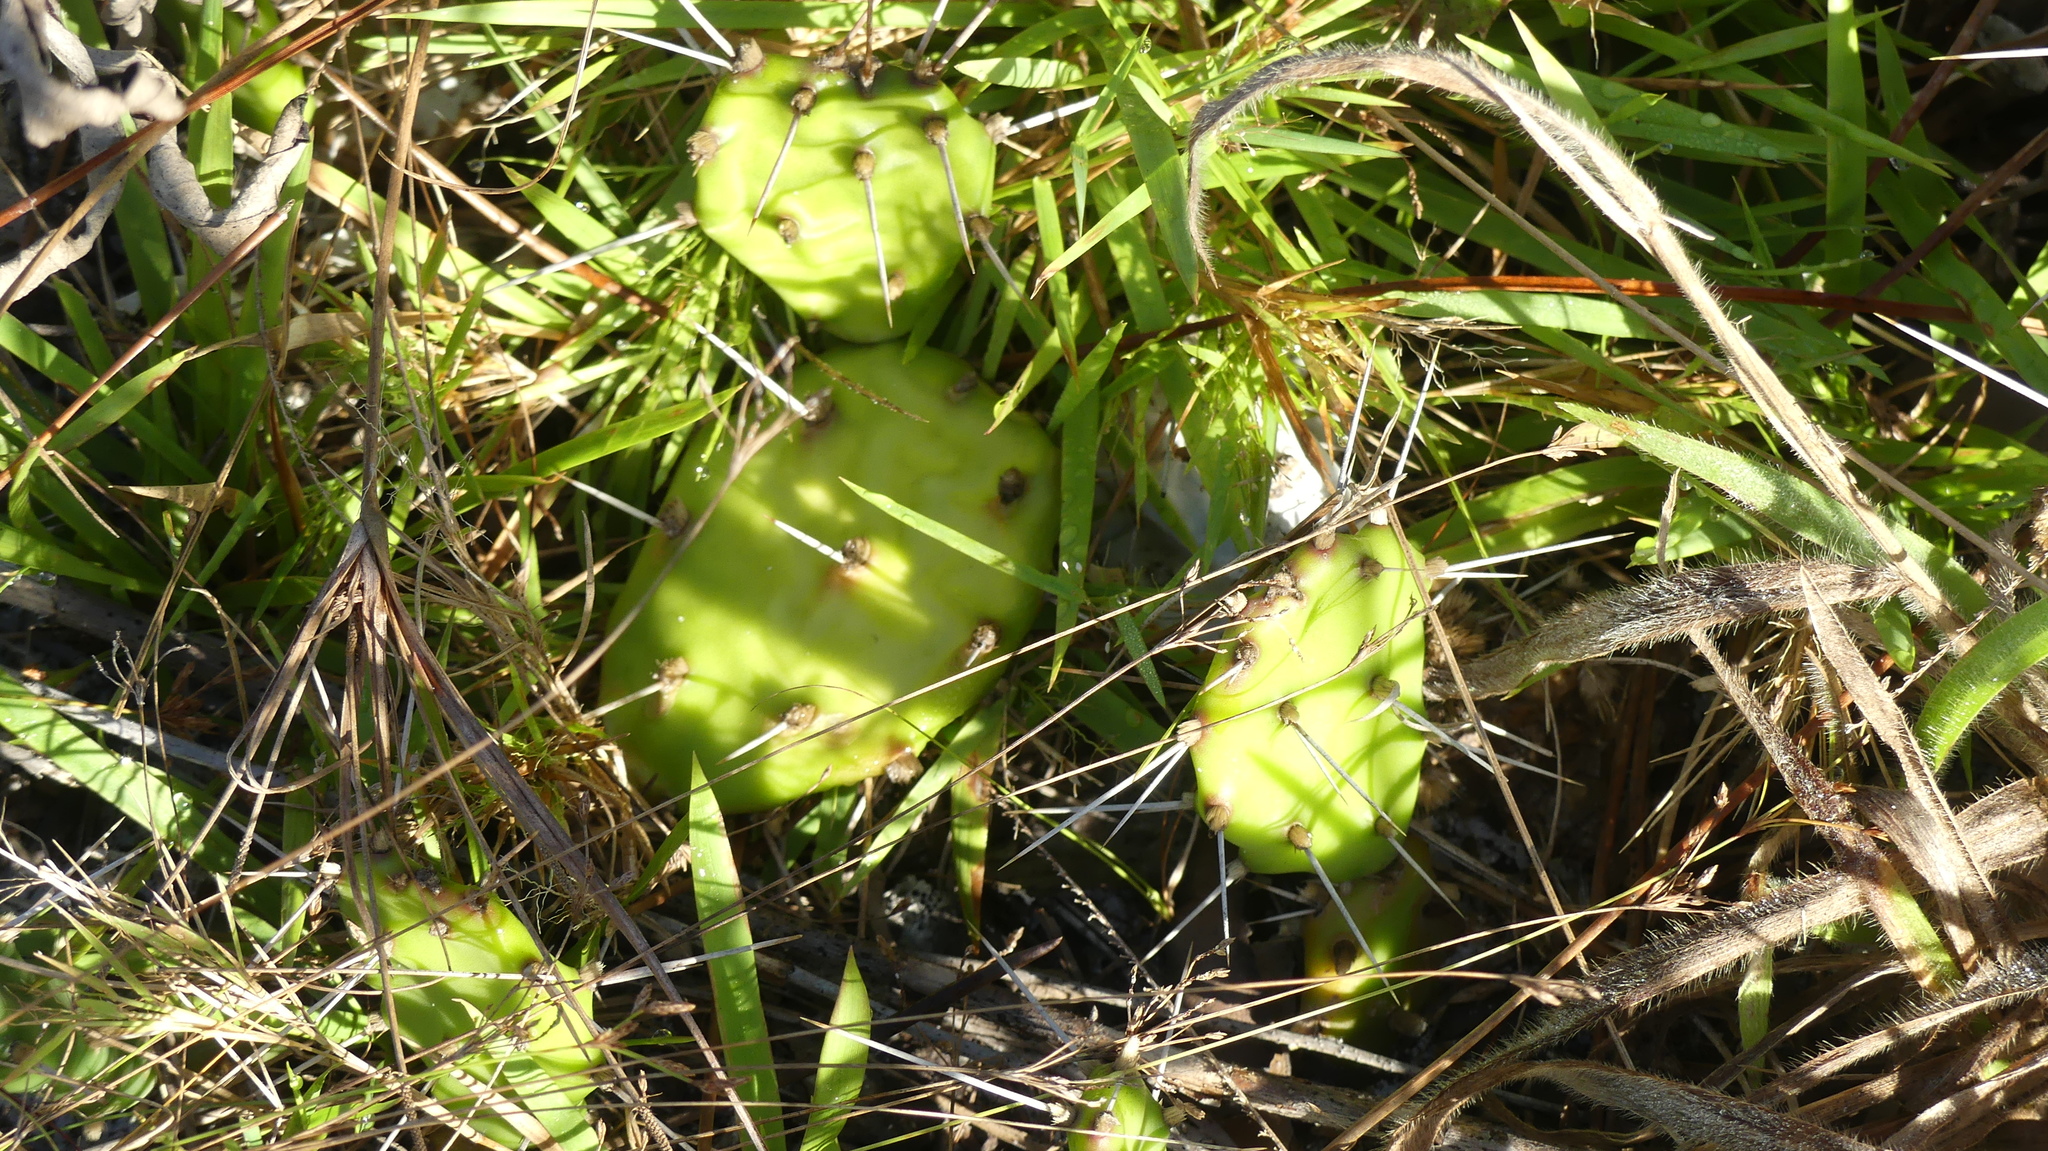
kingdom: Plantae
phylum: Tracheophyta
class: Magnoliopsida
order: Caryophyllales
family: Cactaceae
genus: Opuntia
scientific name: Opuntia austrina
